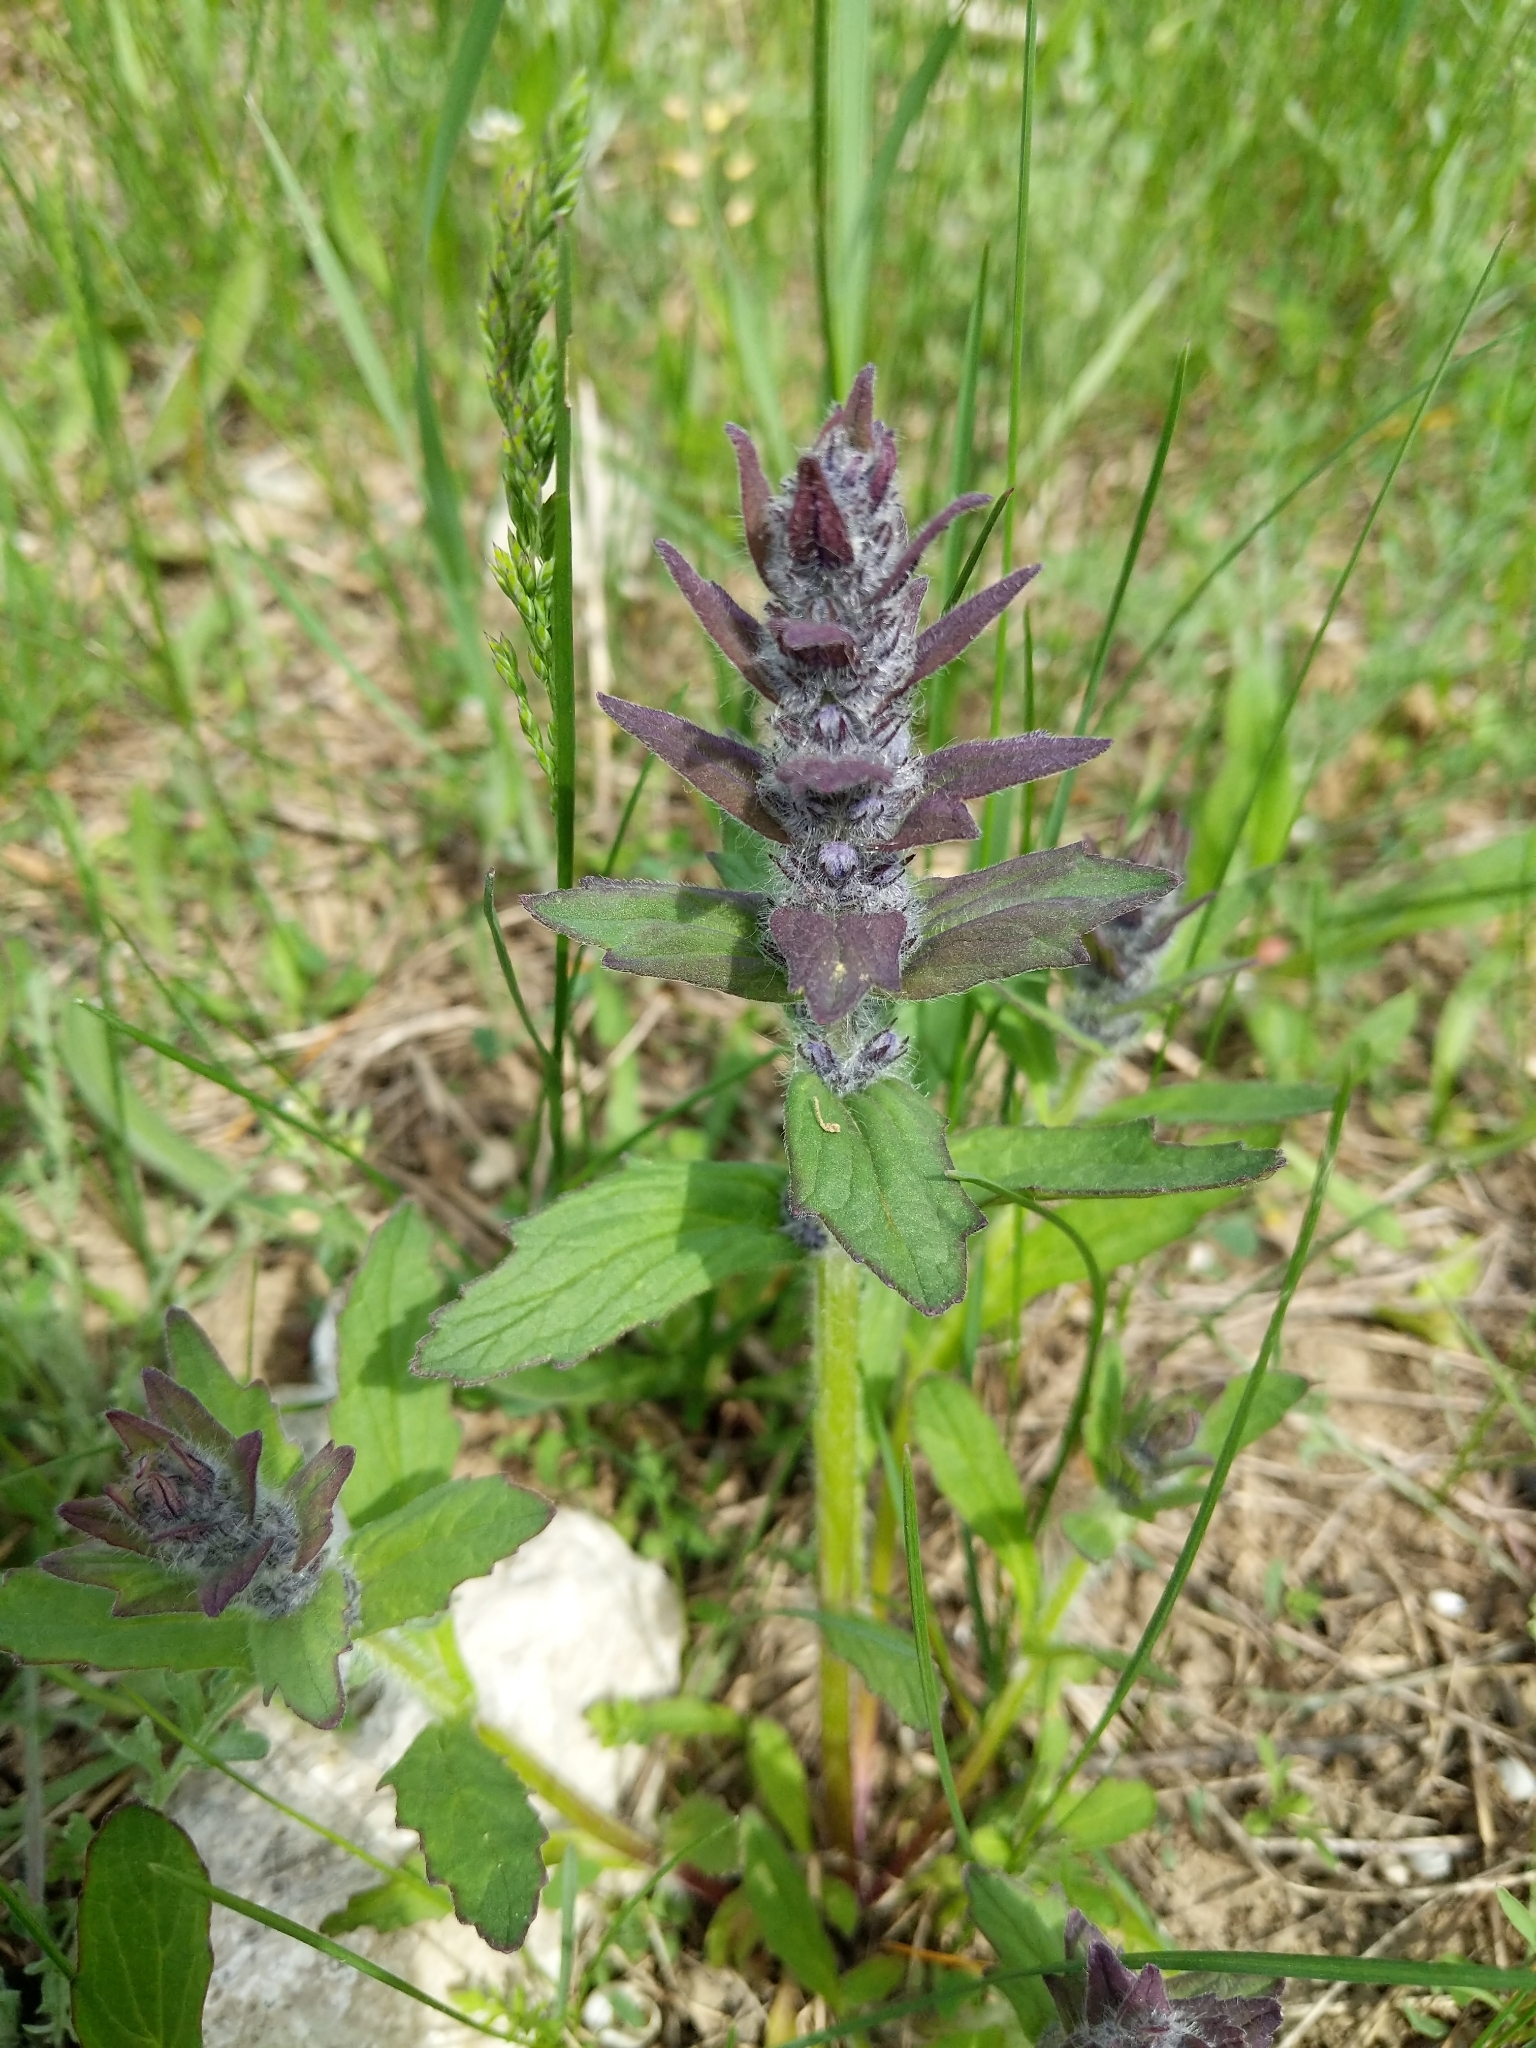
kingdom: Plantae
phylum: Tracheophyta
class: Magnoliopsida
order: Lamiales
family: Lamiaceae
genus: Ajuga
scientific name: Ajuga genevensis
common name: Blue bugle
